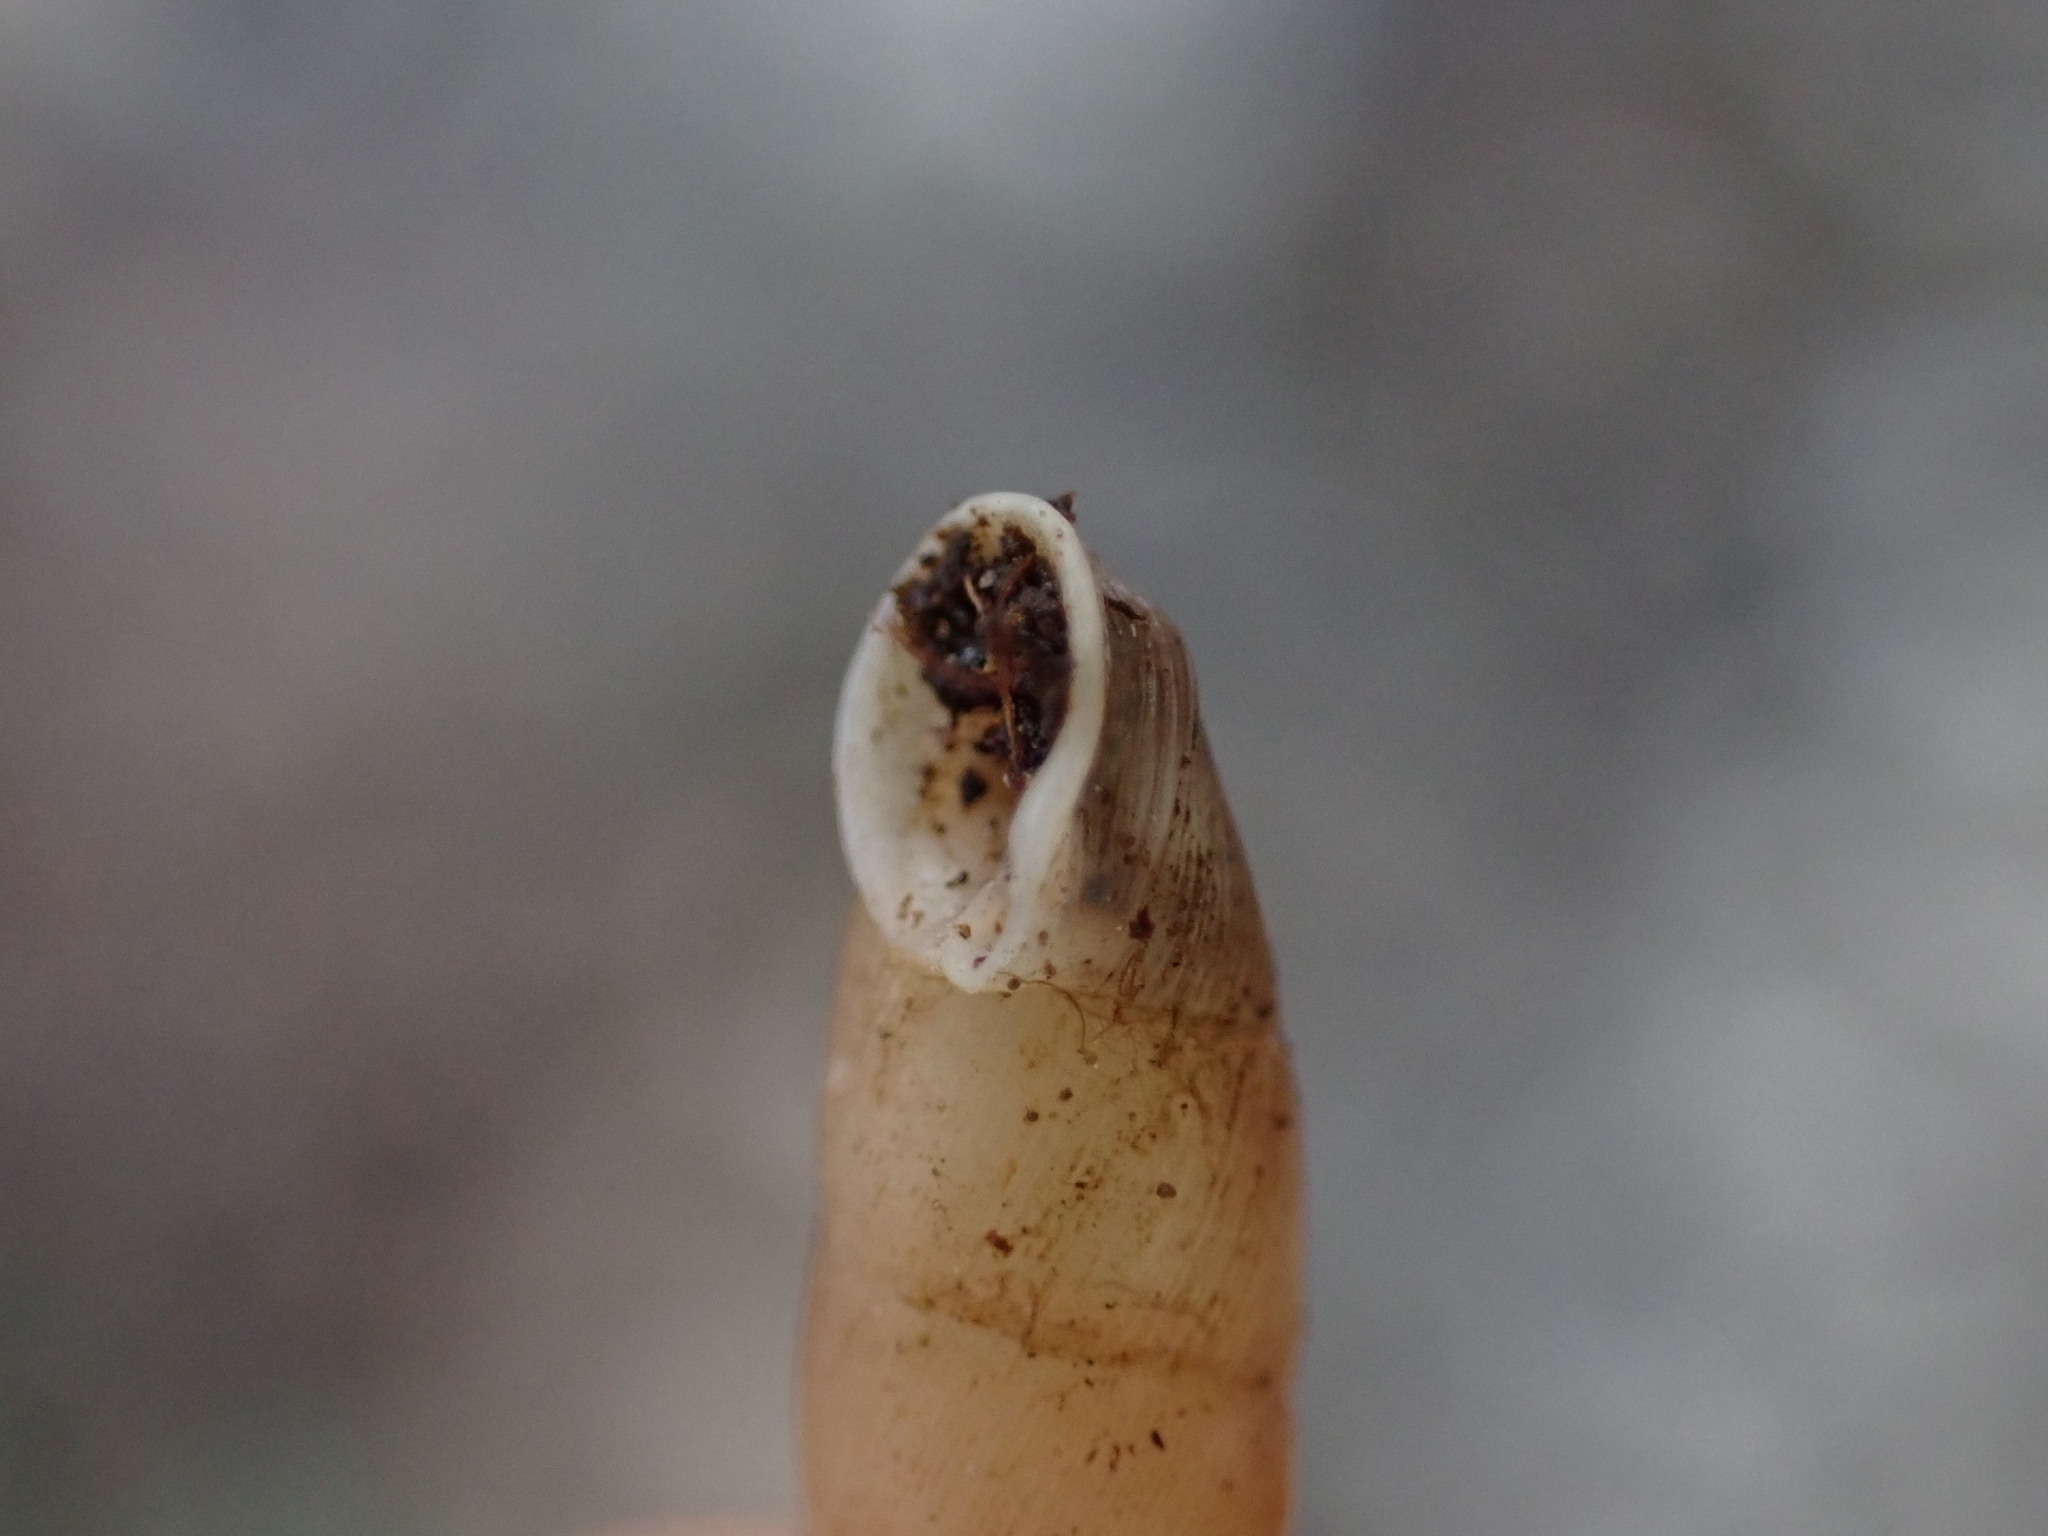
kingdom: Animalia
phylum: Mollusca
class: Gastropoda
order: Stylommatophora
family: Clausiliidae
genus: Papillifera
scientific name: Papillifera solida
